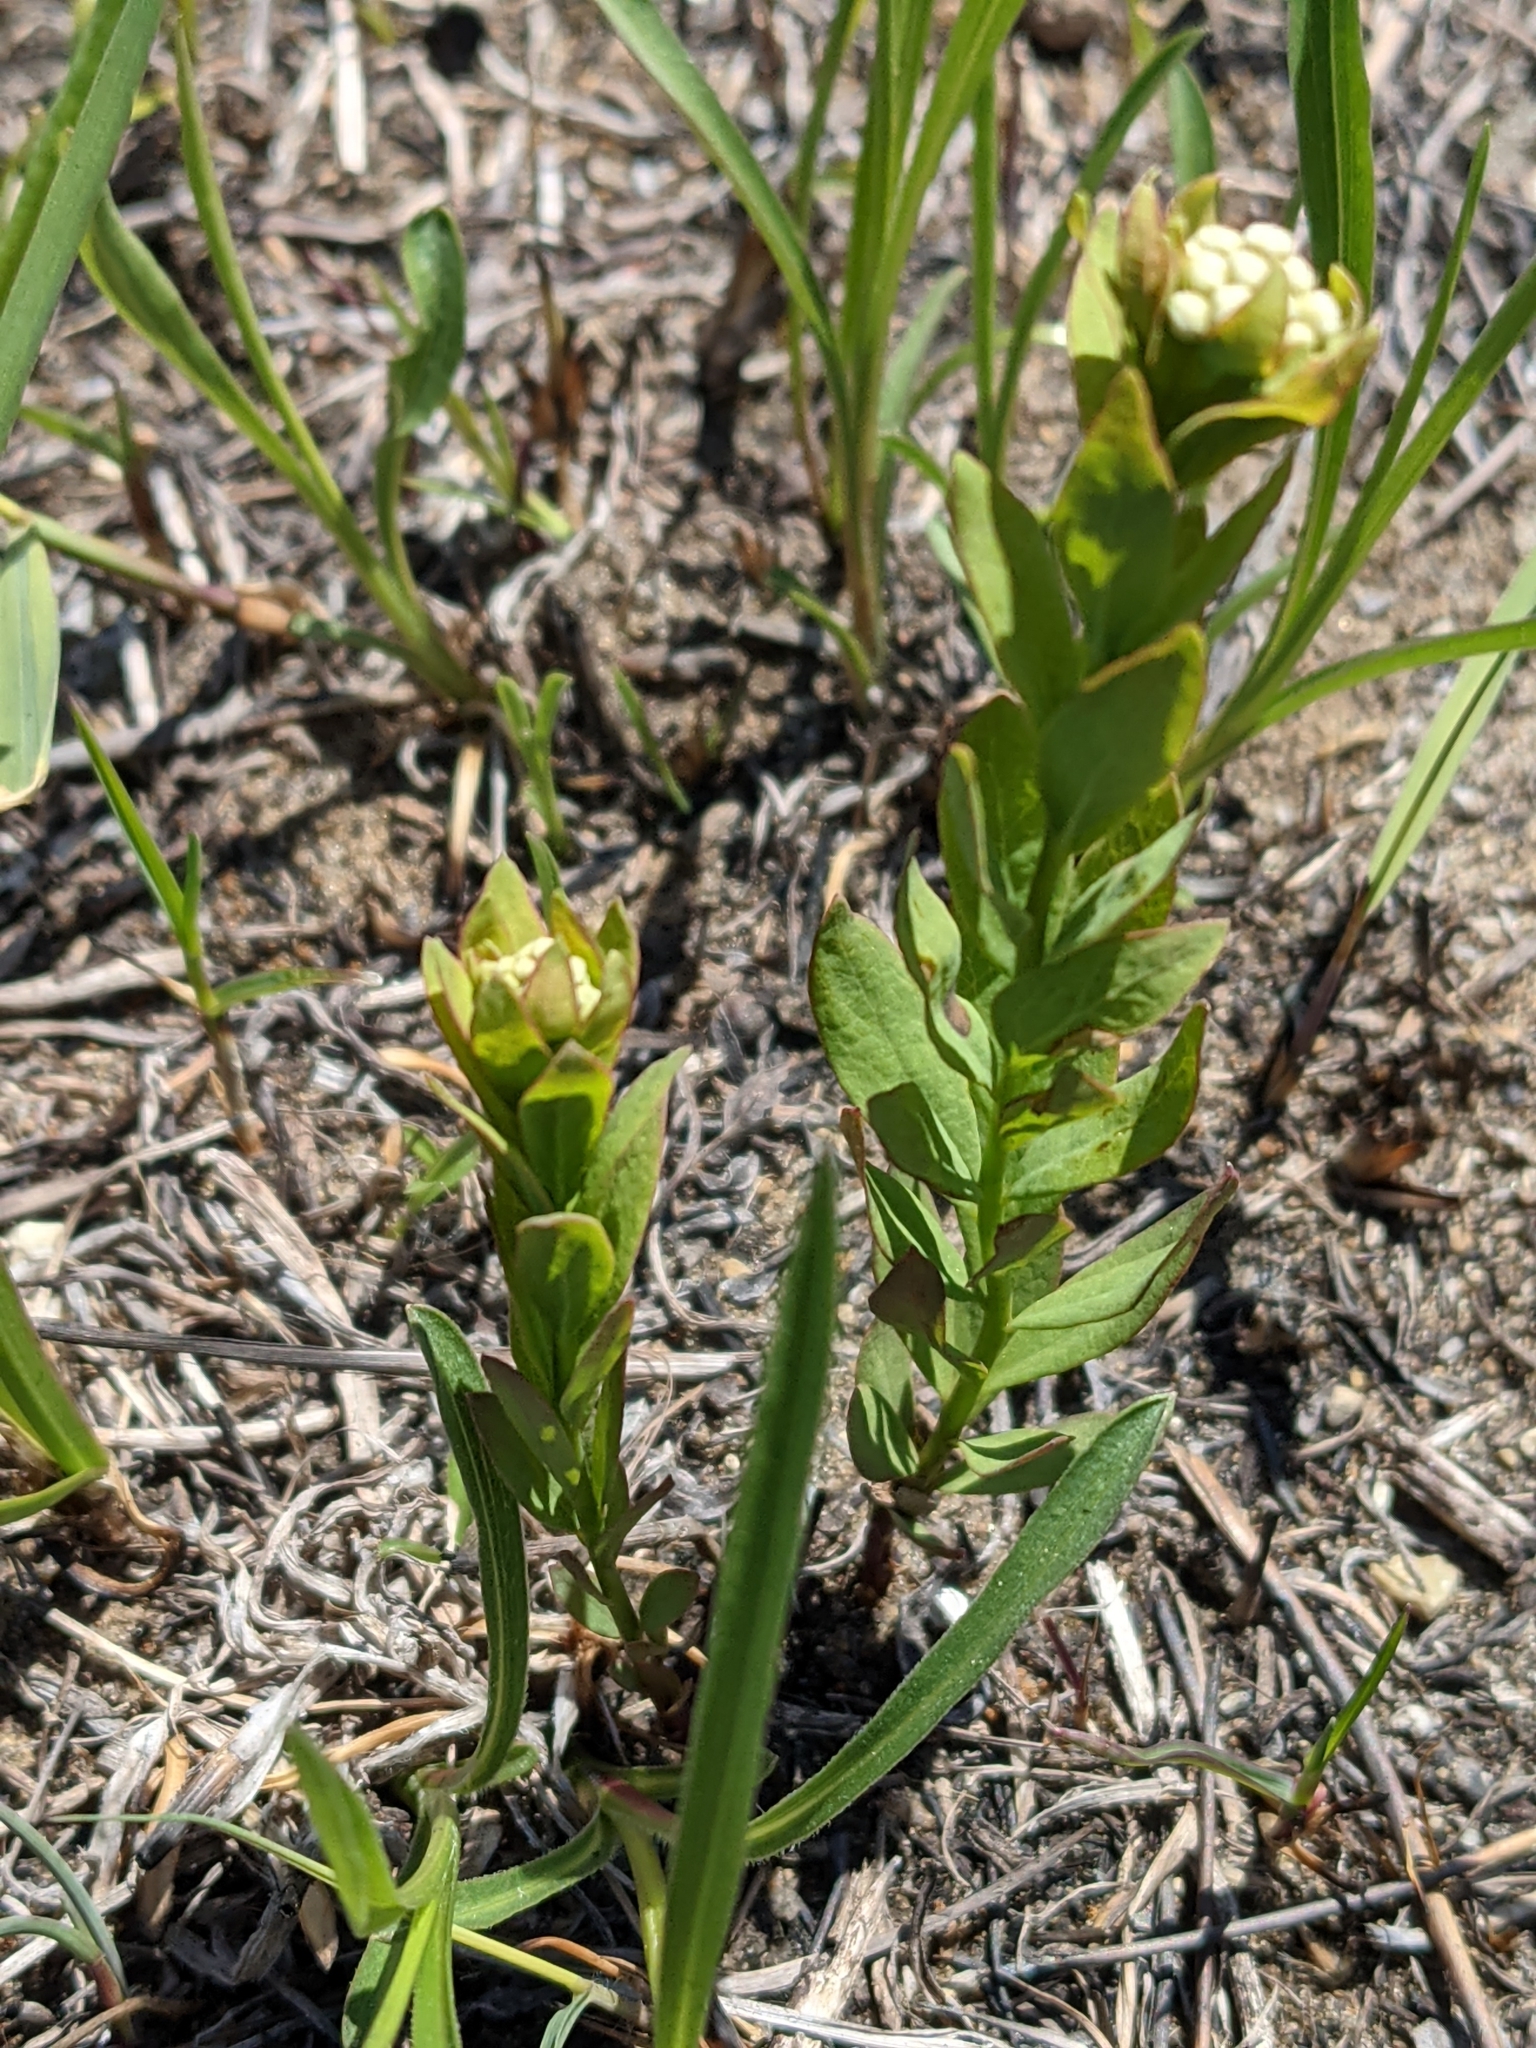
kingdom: Plantae
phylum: Tracheophyta
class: Magnoliopsida
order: Santalales
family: Comandraceae
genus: Comandra
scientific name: Comandra umbellata
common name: Bastard toadflax
